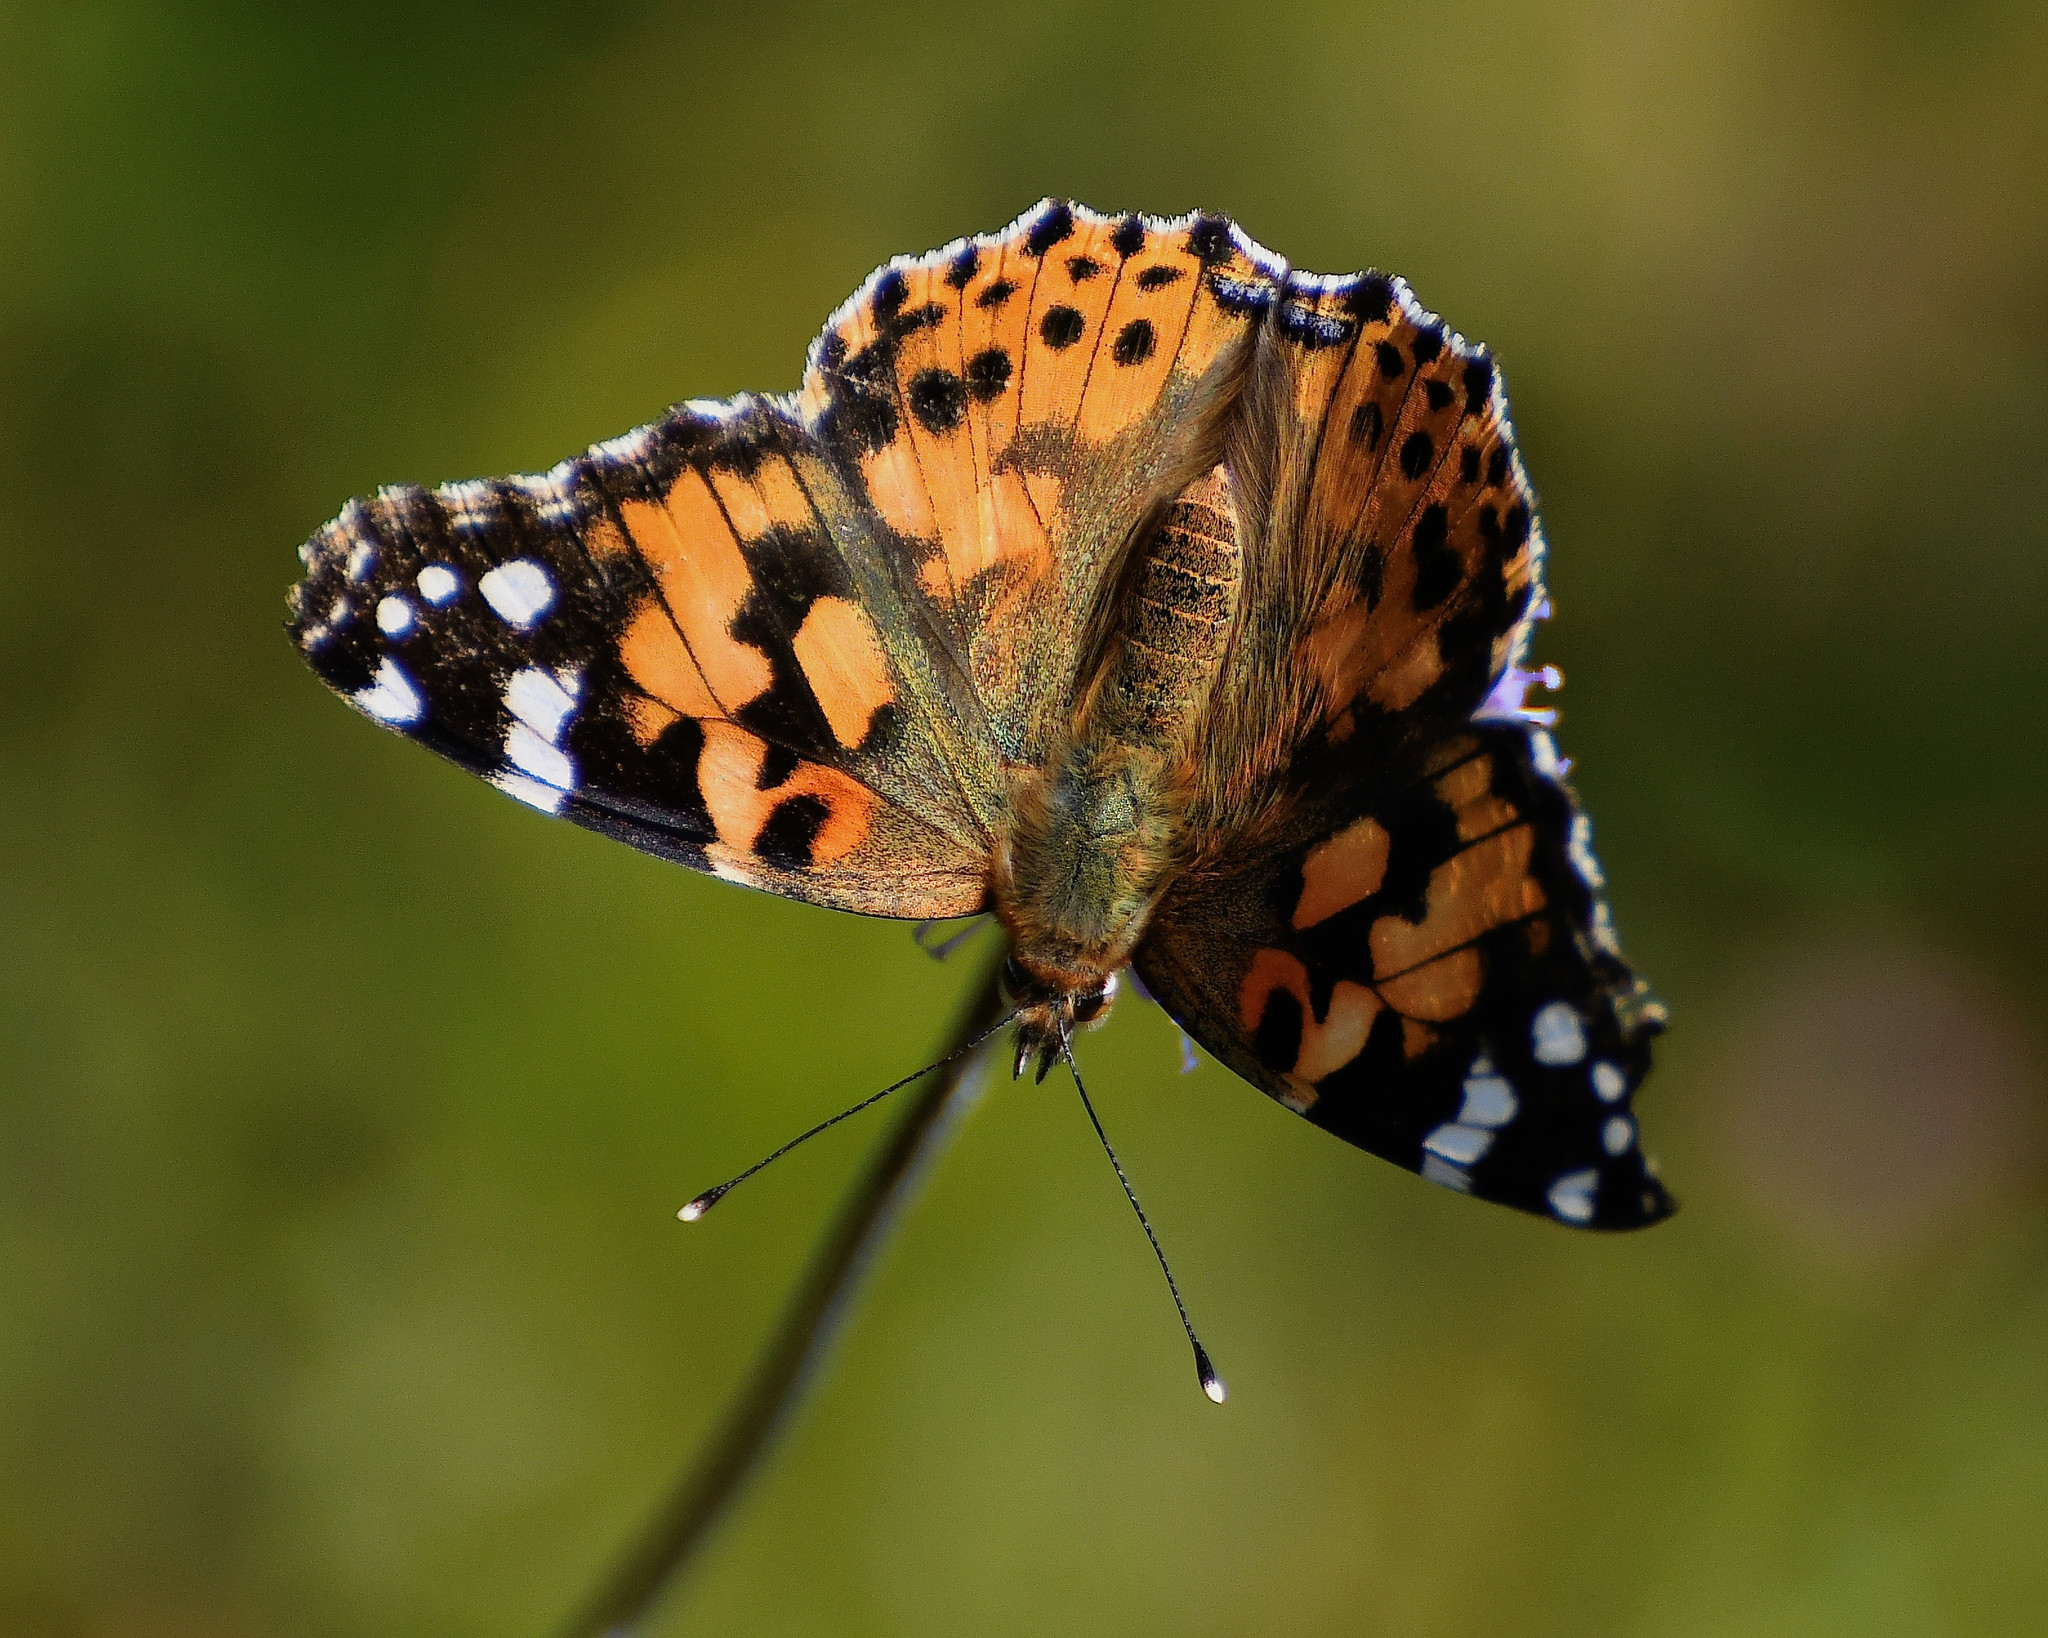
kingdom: Animalia
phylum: Arthropoda
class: Insecta
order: Lepidoptera
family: Nymphalidae
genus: Vanessa
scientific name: Vanessa cardui
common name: Painted lady
